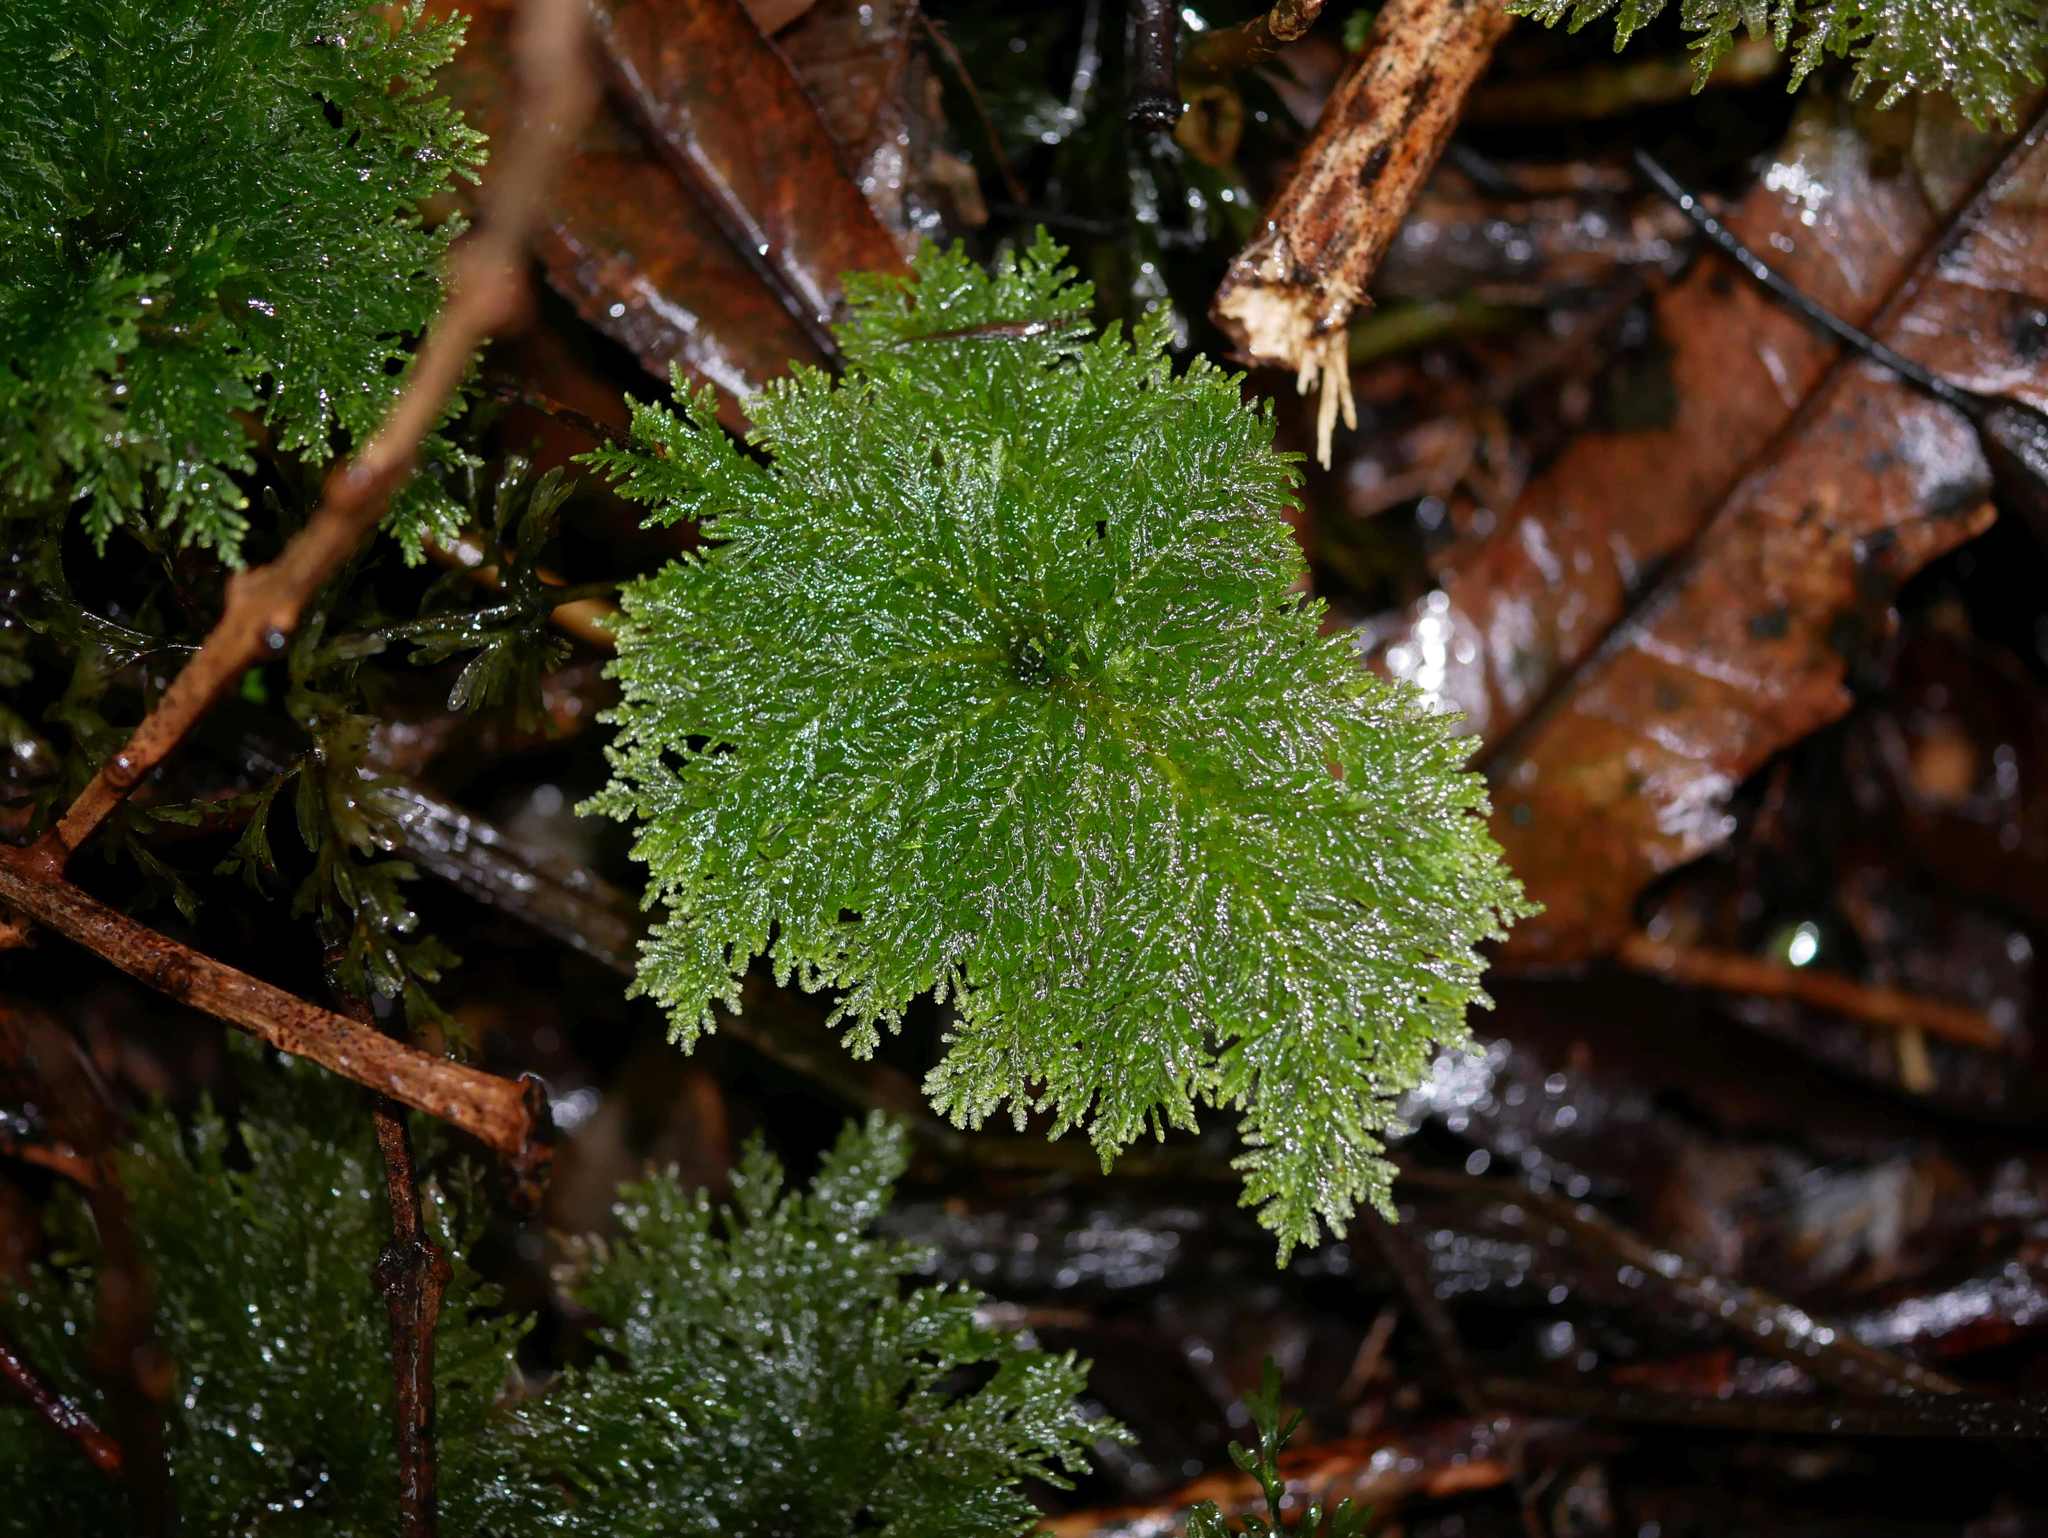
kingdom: Plantae
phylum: Bryophyta
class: Bryopsida
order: Hypopterygiales
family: Hypopterygiaceae
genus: Dendrohypopterygium
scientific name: Dendrohypopterygium filiculiforme
